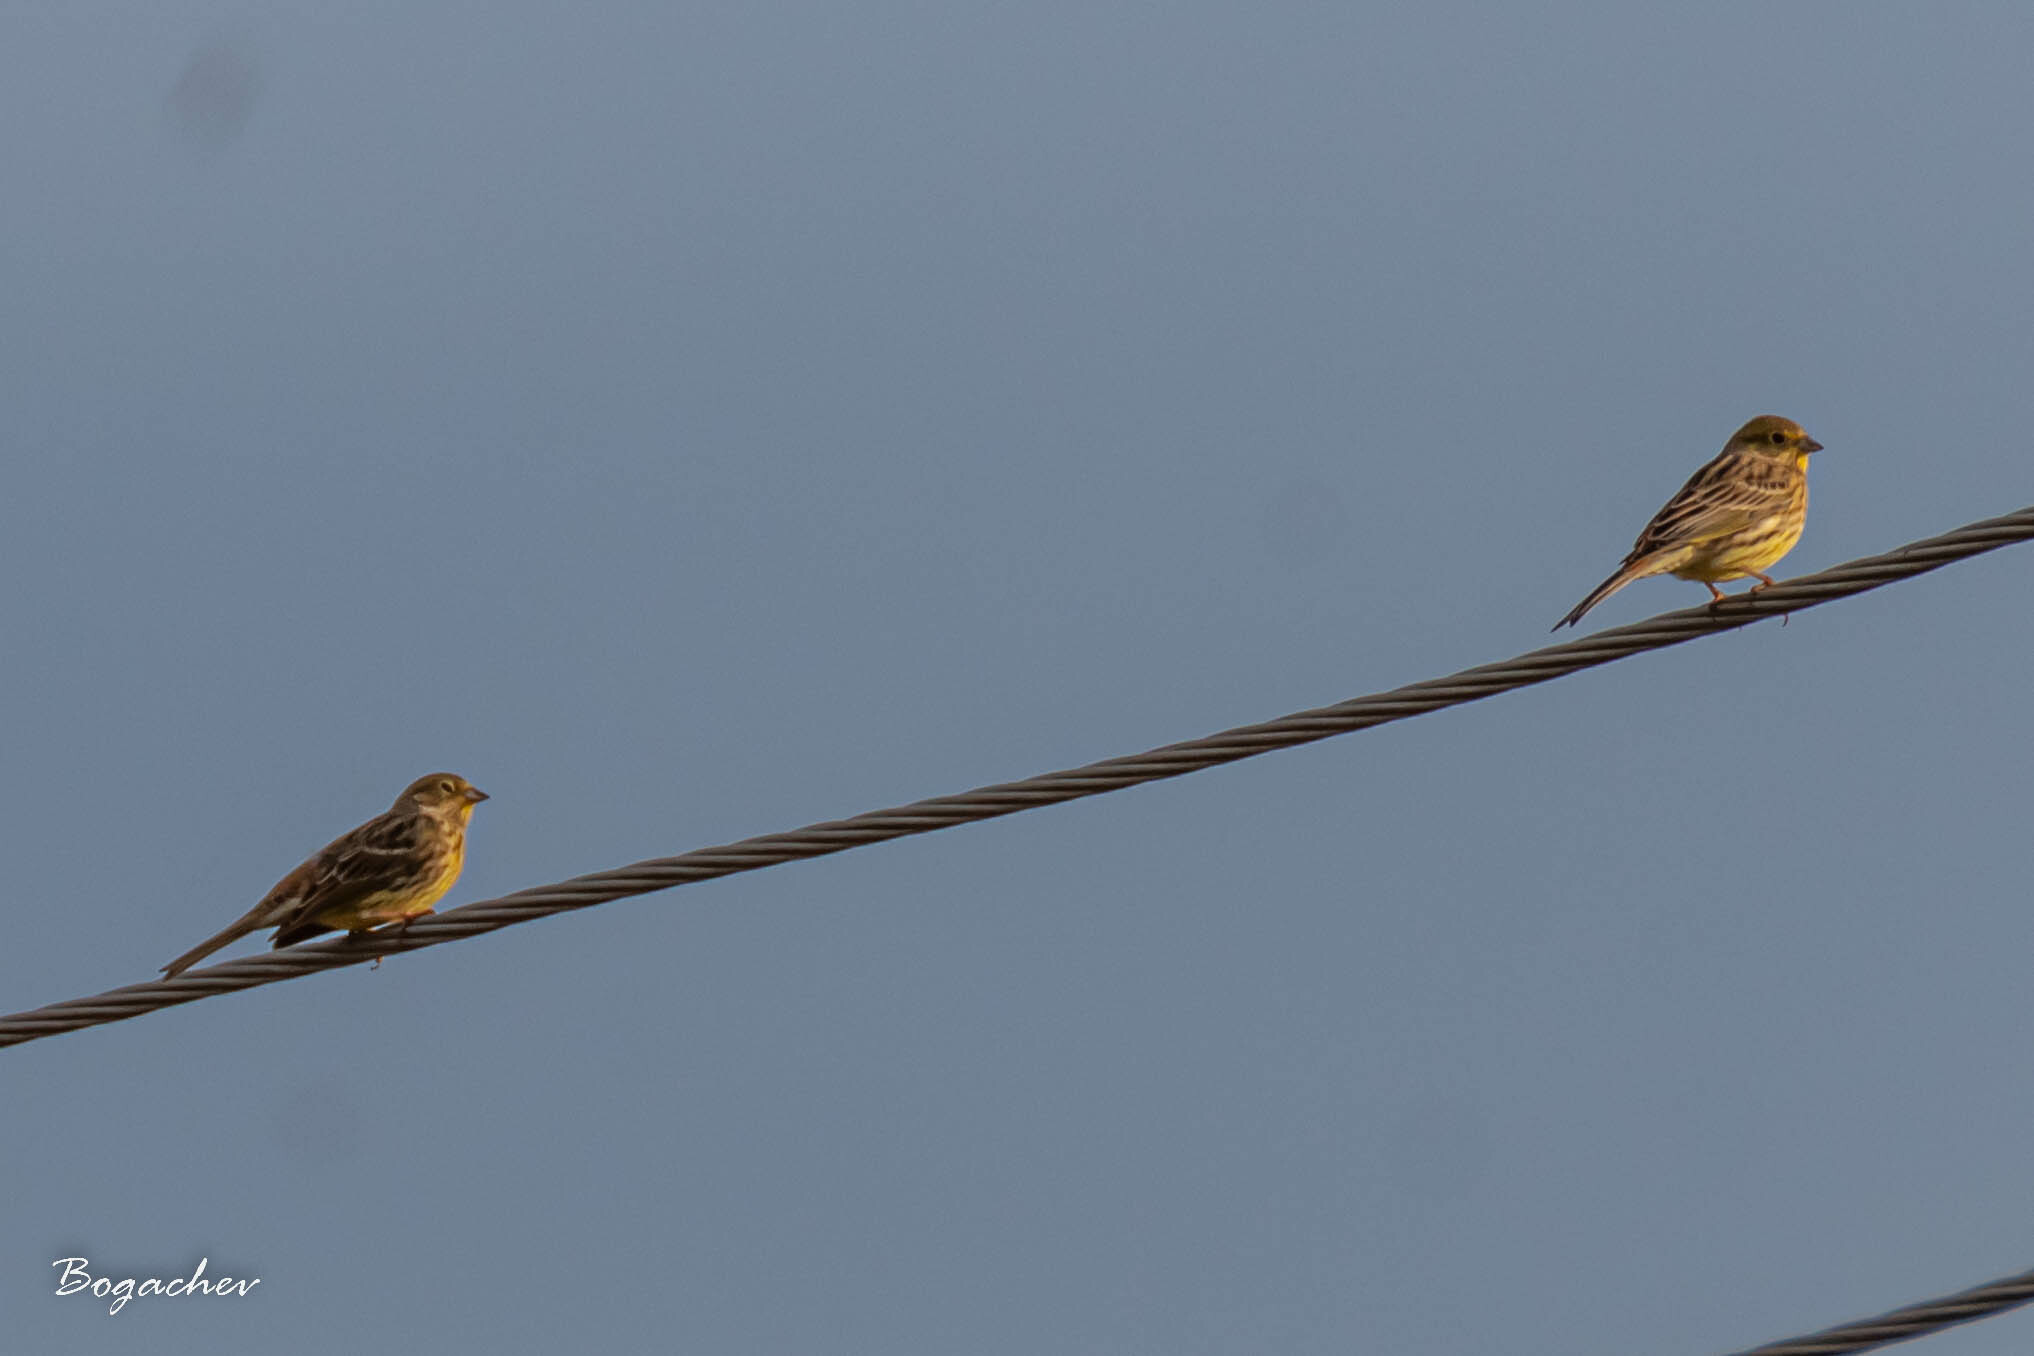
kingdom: Animalia
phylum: Chordata
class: Aves
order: Passeriformes
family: Emberizidae
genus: Emberiza
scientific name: Emberiza citrinella
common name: Yellowhammer
